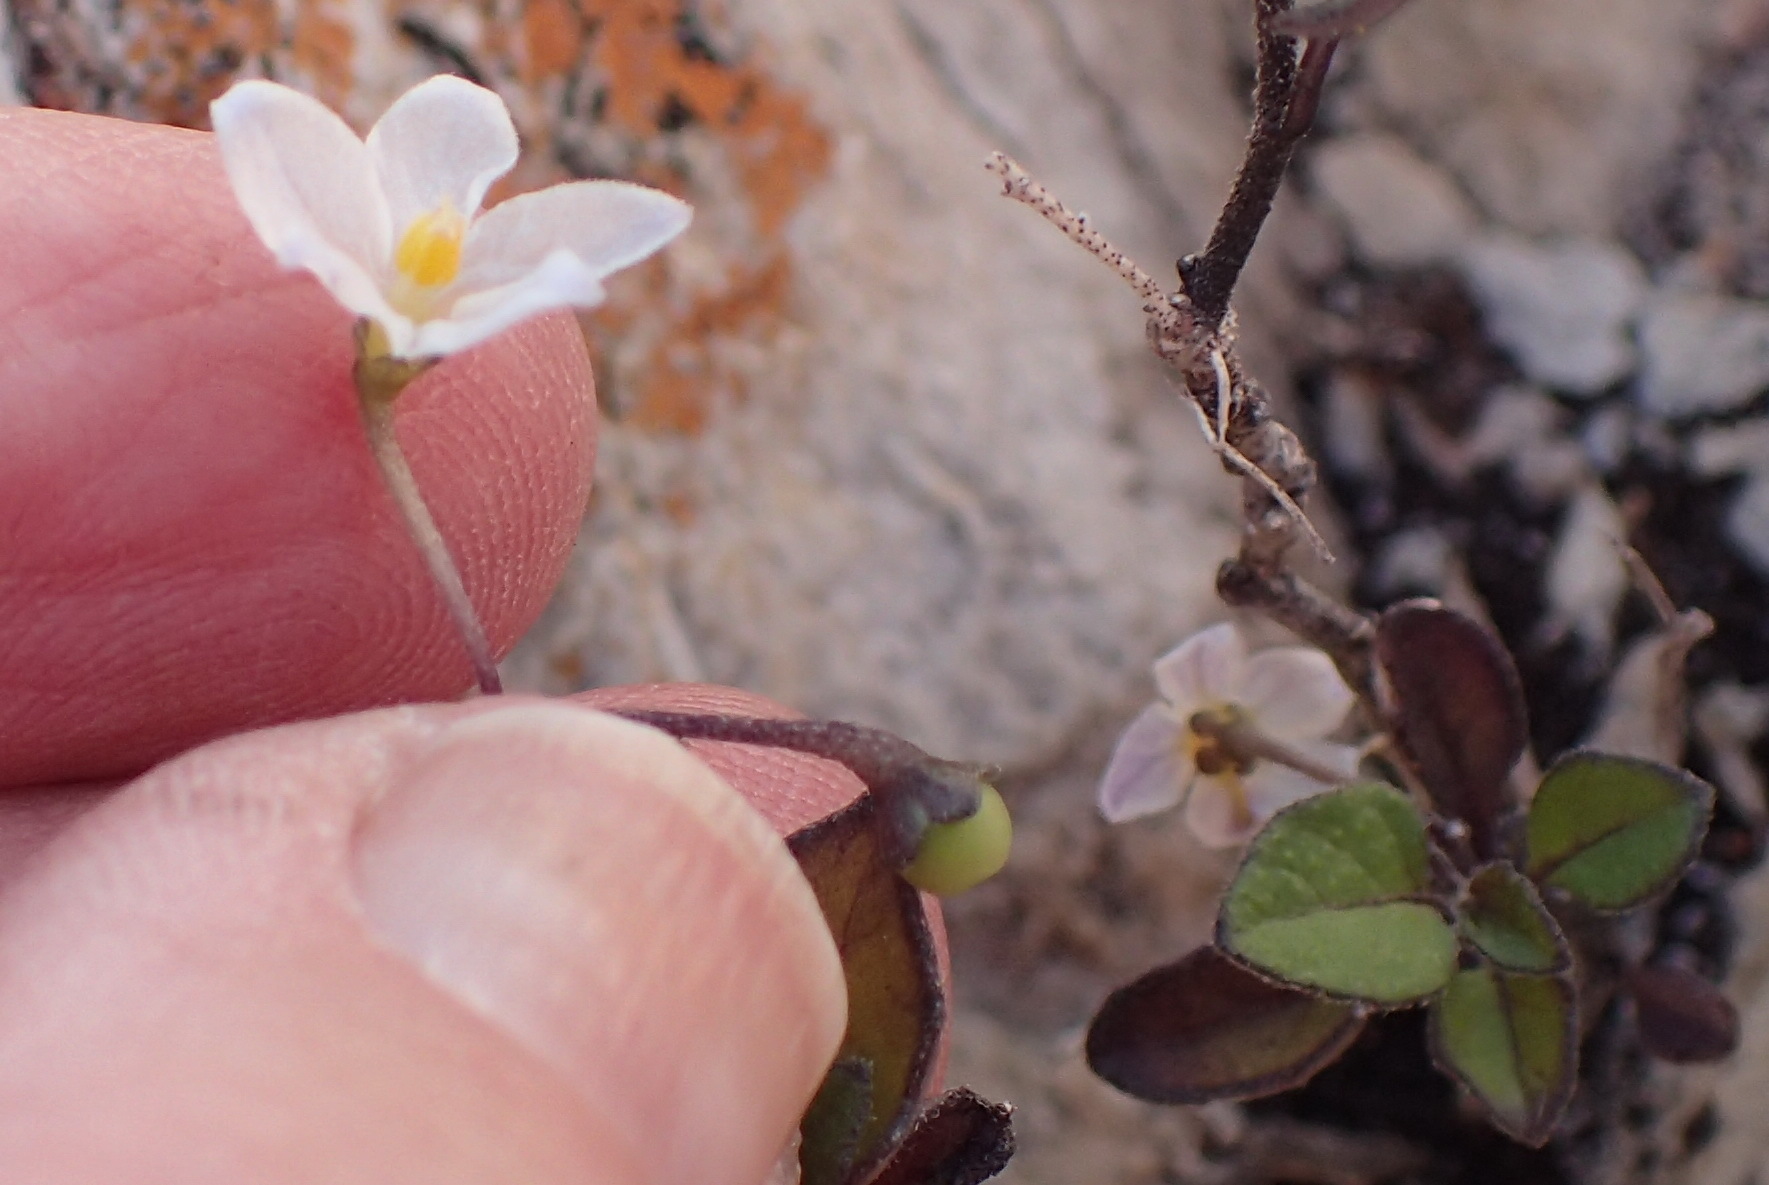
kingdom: Plantae
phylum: Tracheophyta
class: Magnoliopsida
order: Solanales
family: Solanaceae
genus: Solanum
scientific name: Solanum nigrum
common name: Black nightshade
